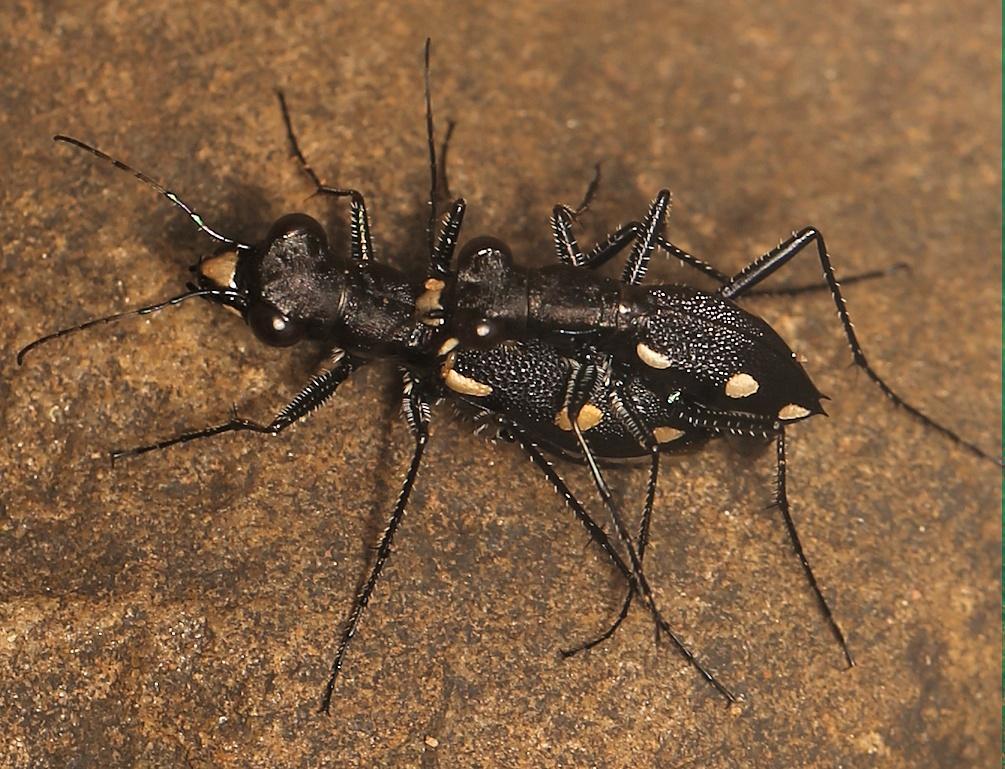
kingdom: Animalia
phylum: Arthropoda
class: Insecta
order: Coleoptera
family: Carabidae
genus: Dromica
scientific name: Dromica sexmaculata
